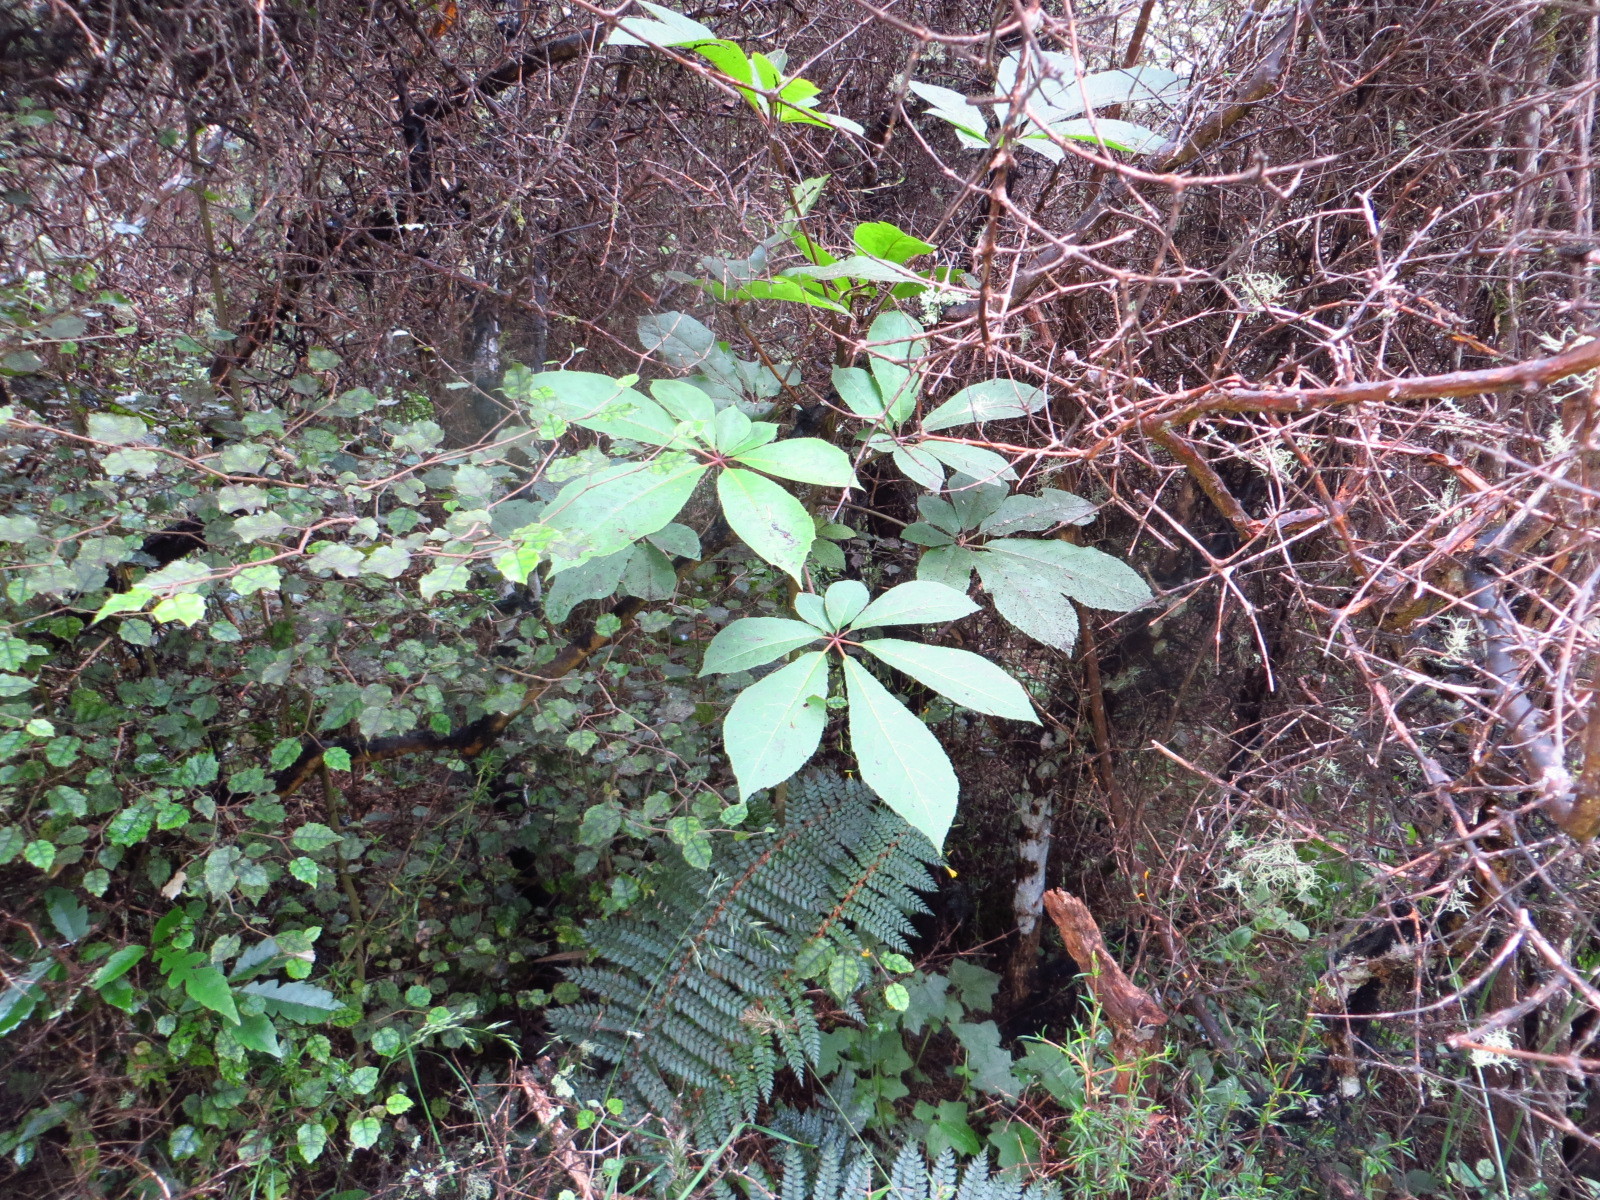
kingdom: Plantae
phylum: Tracheophyta
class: Magnoliopsida
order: Apiales
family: Araliaceae
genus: Schefflera
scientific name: Schefflera digitata
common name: Pate
